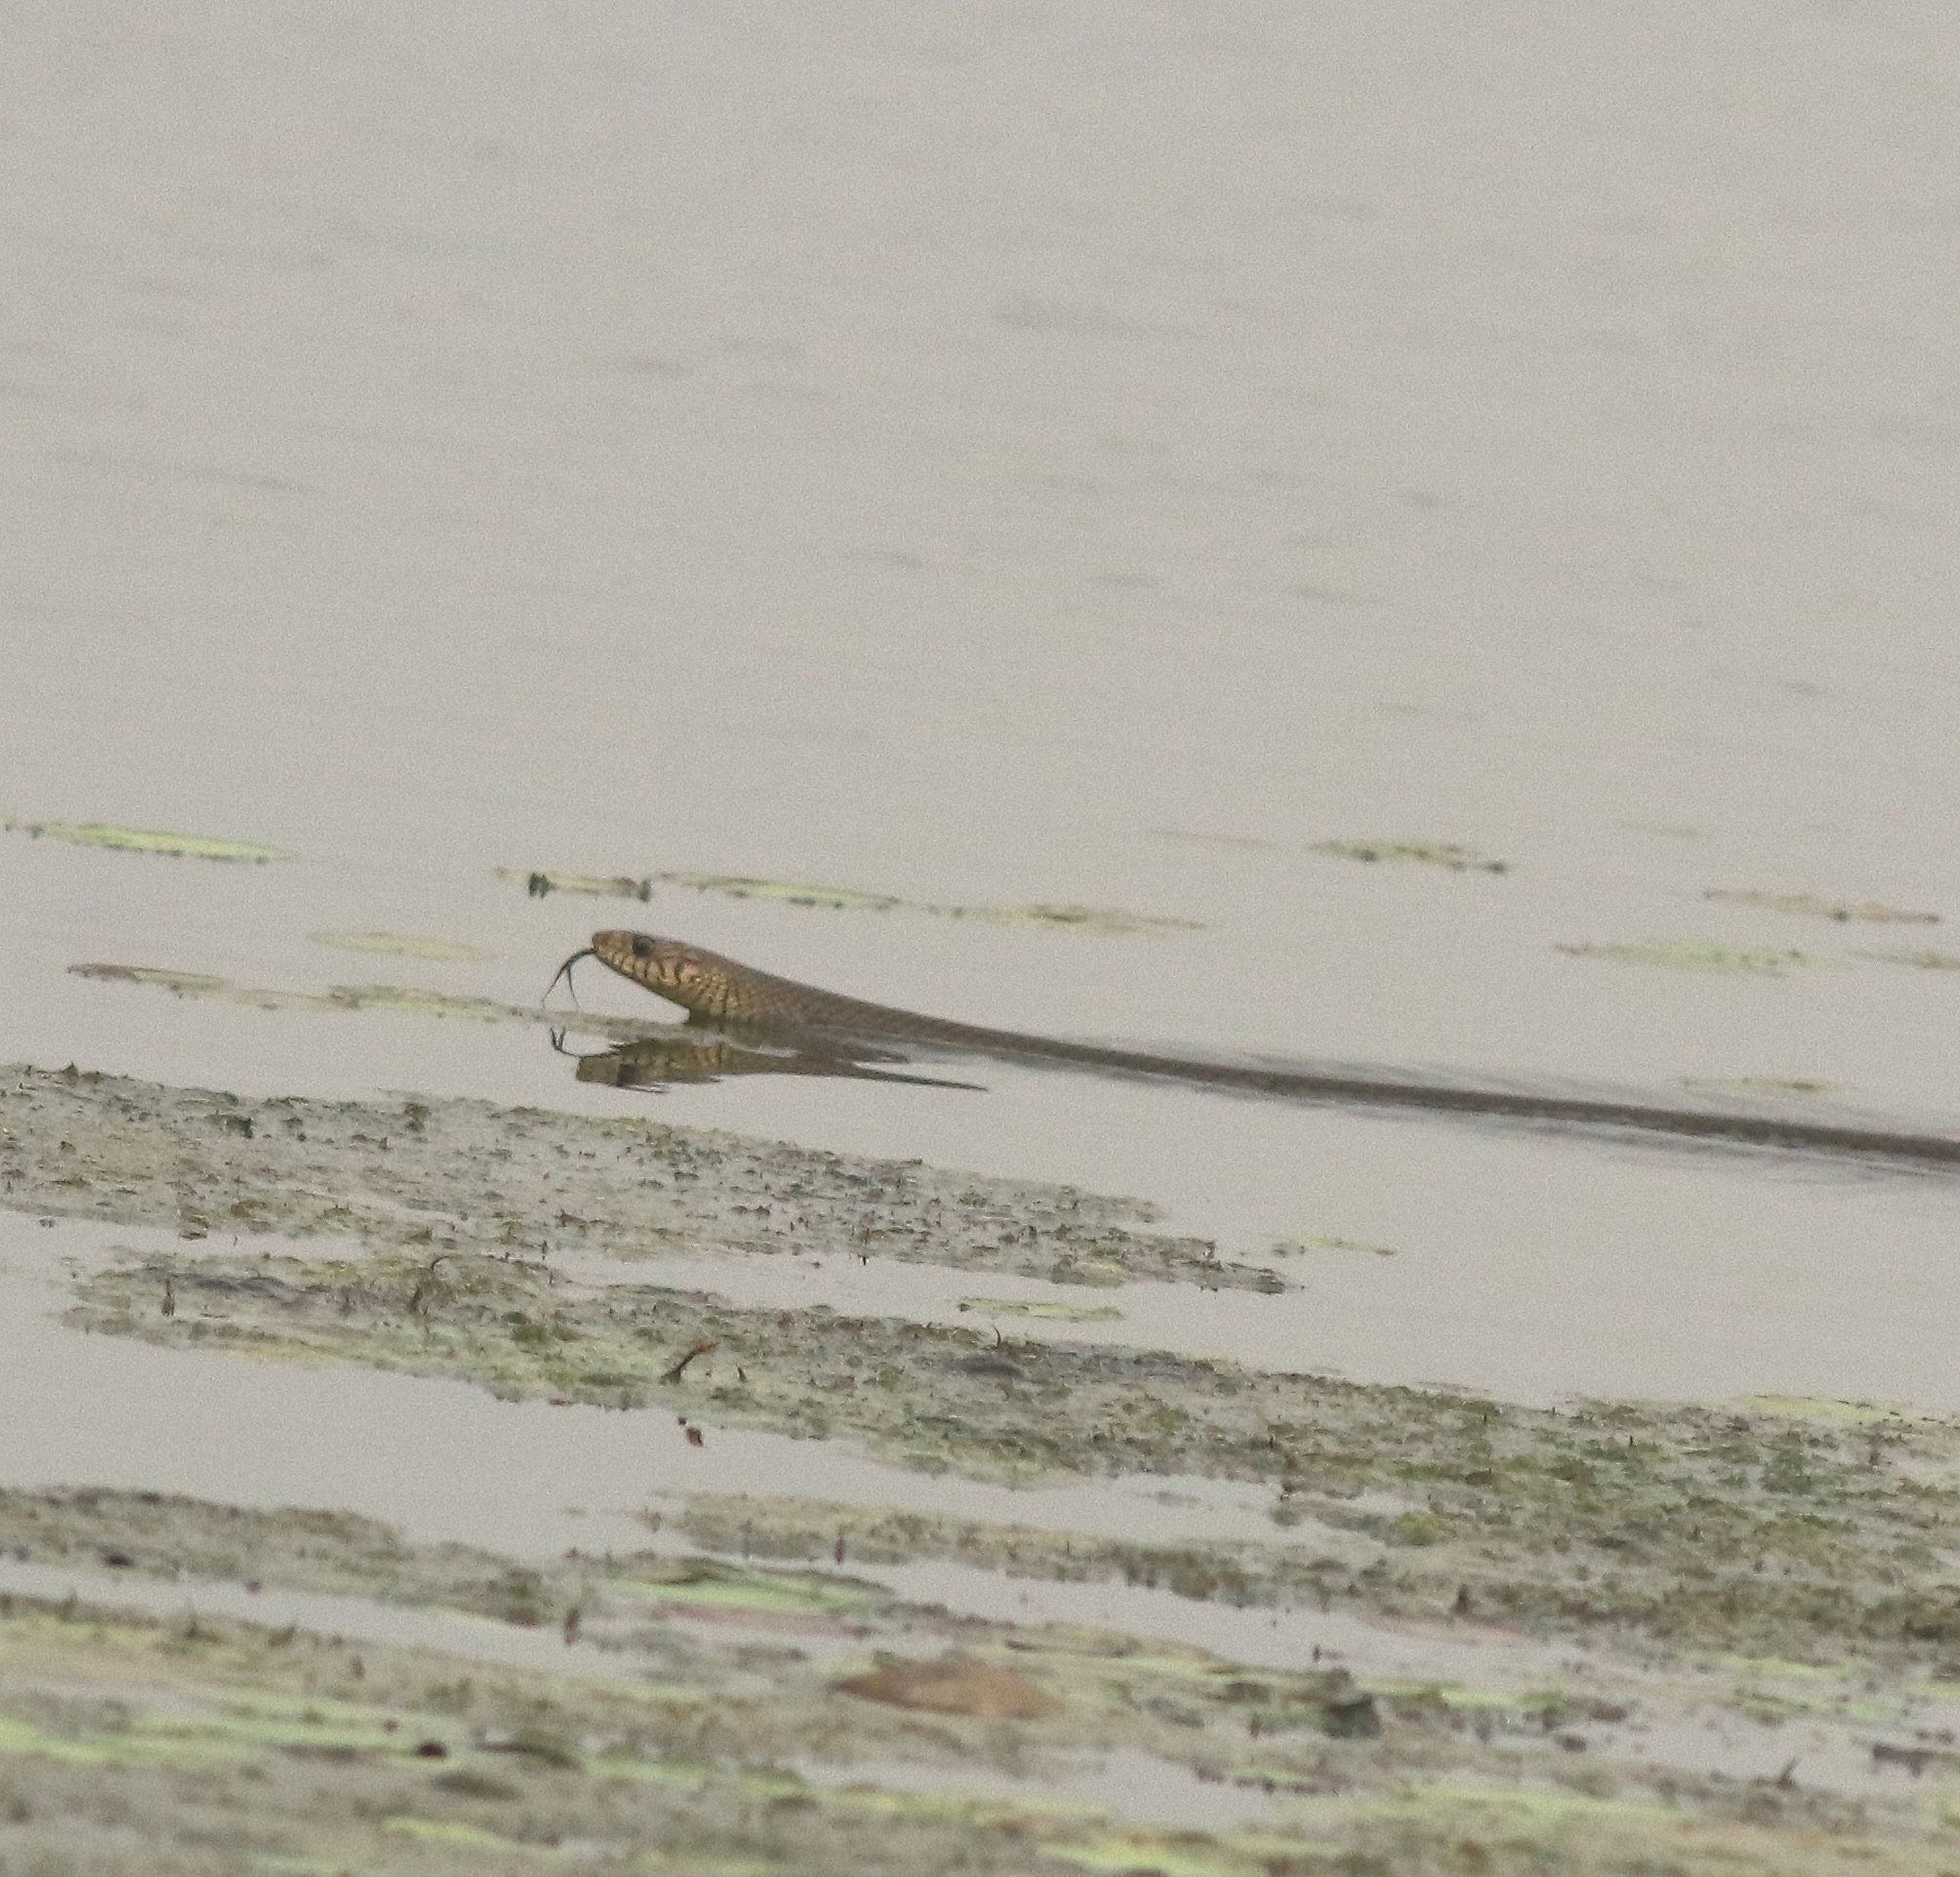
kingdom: Animalia
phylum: Chordata
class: Squamata
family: Colubridae
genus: Ptyas
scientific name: Ptyas mucosa
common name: Oriental ratsnake
